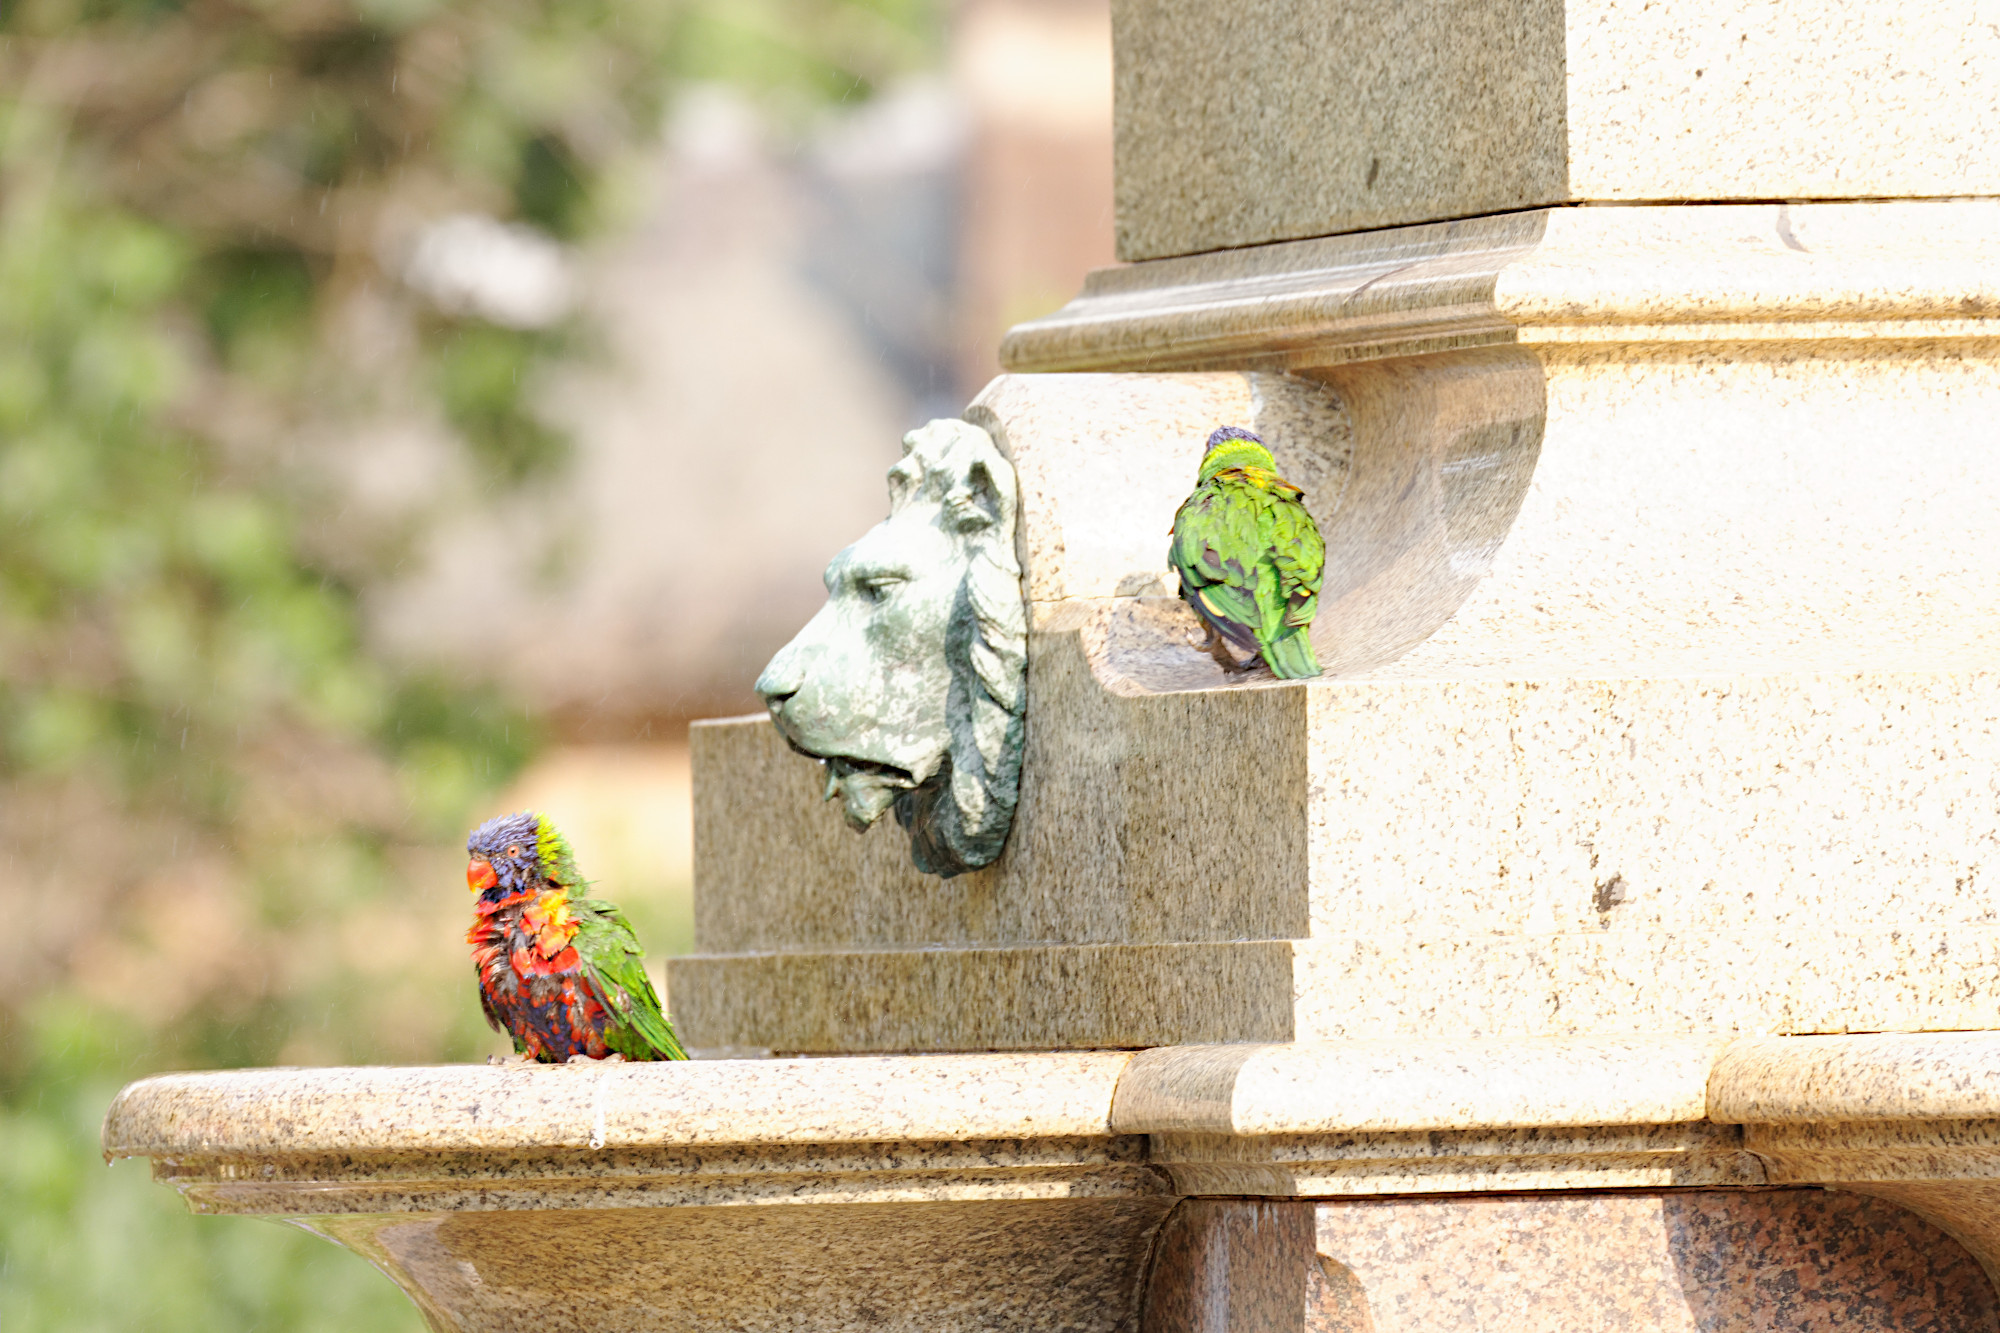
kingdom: Animalia
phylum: Chordata
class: Aves
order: Psittaciformes
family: Psittacidae
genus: Trichoglossus
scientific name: Trichoglossus haematodus
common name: Coconut lorikeet
